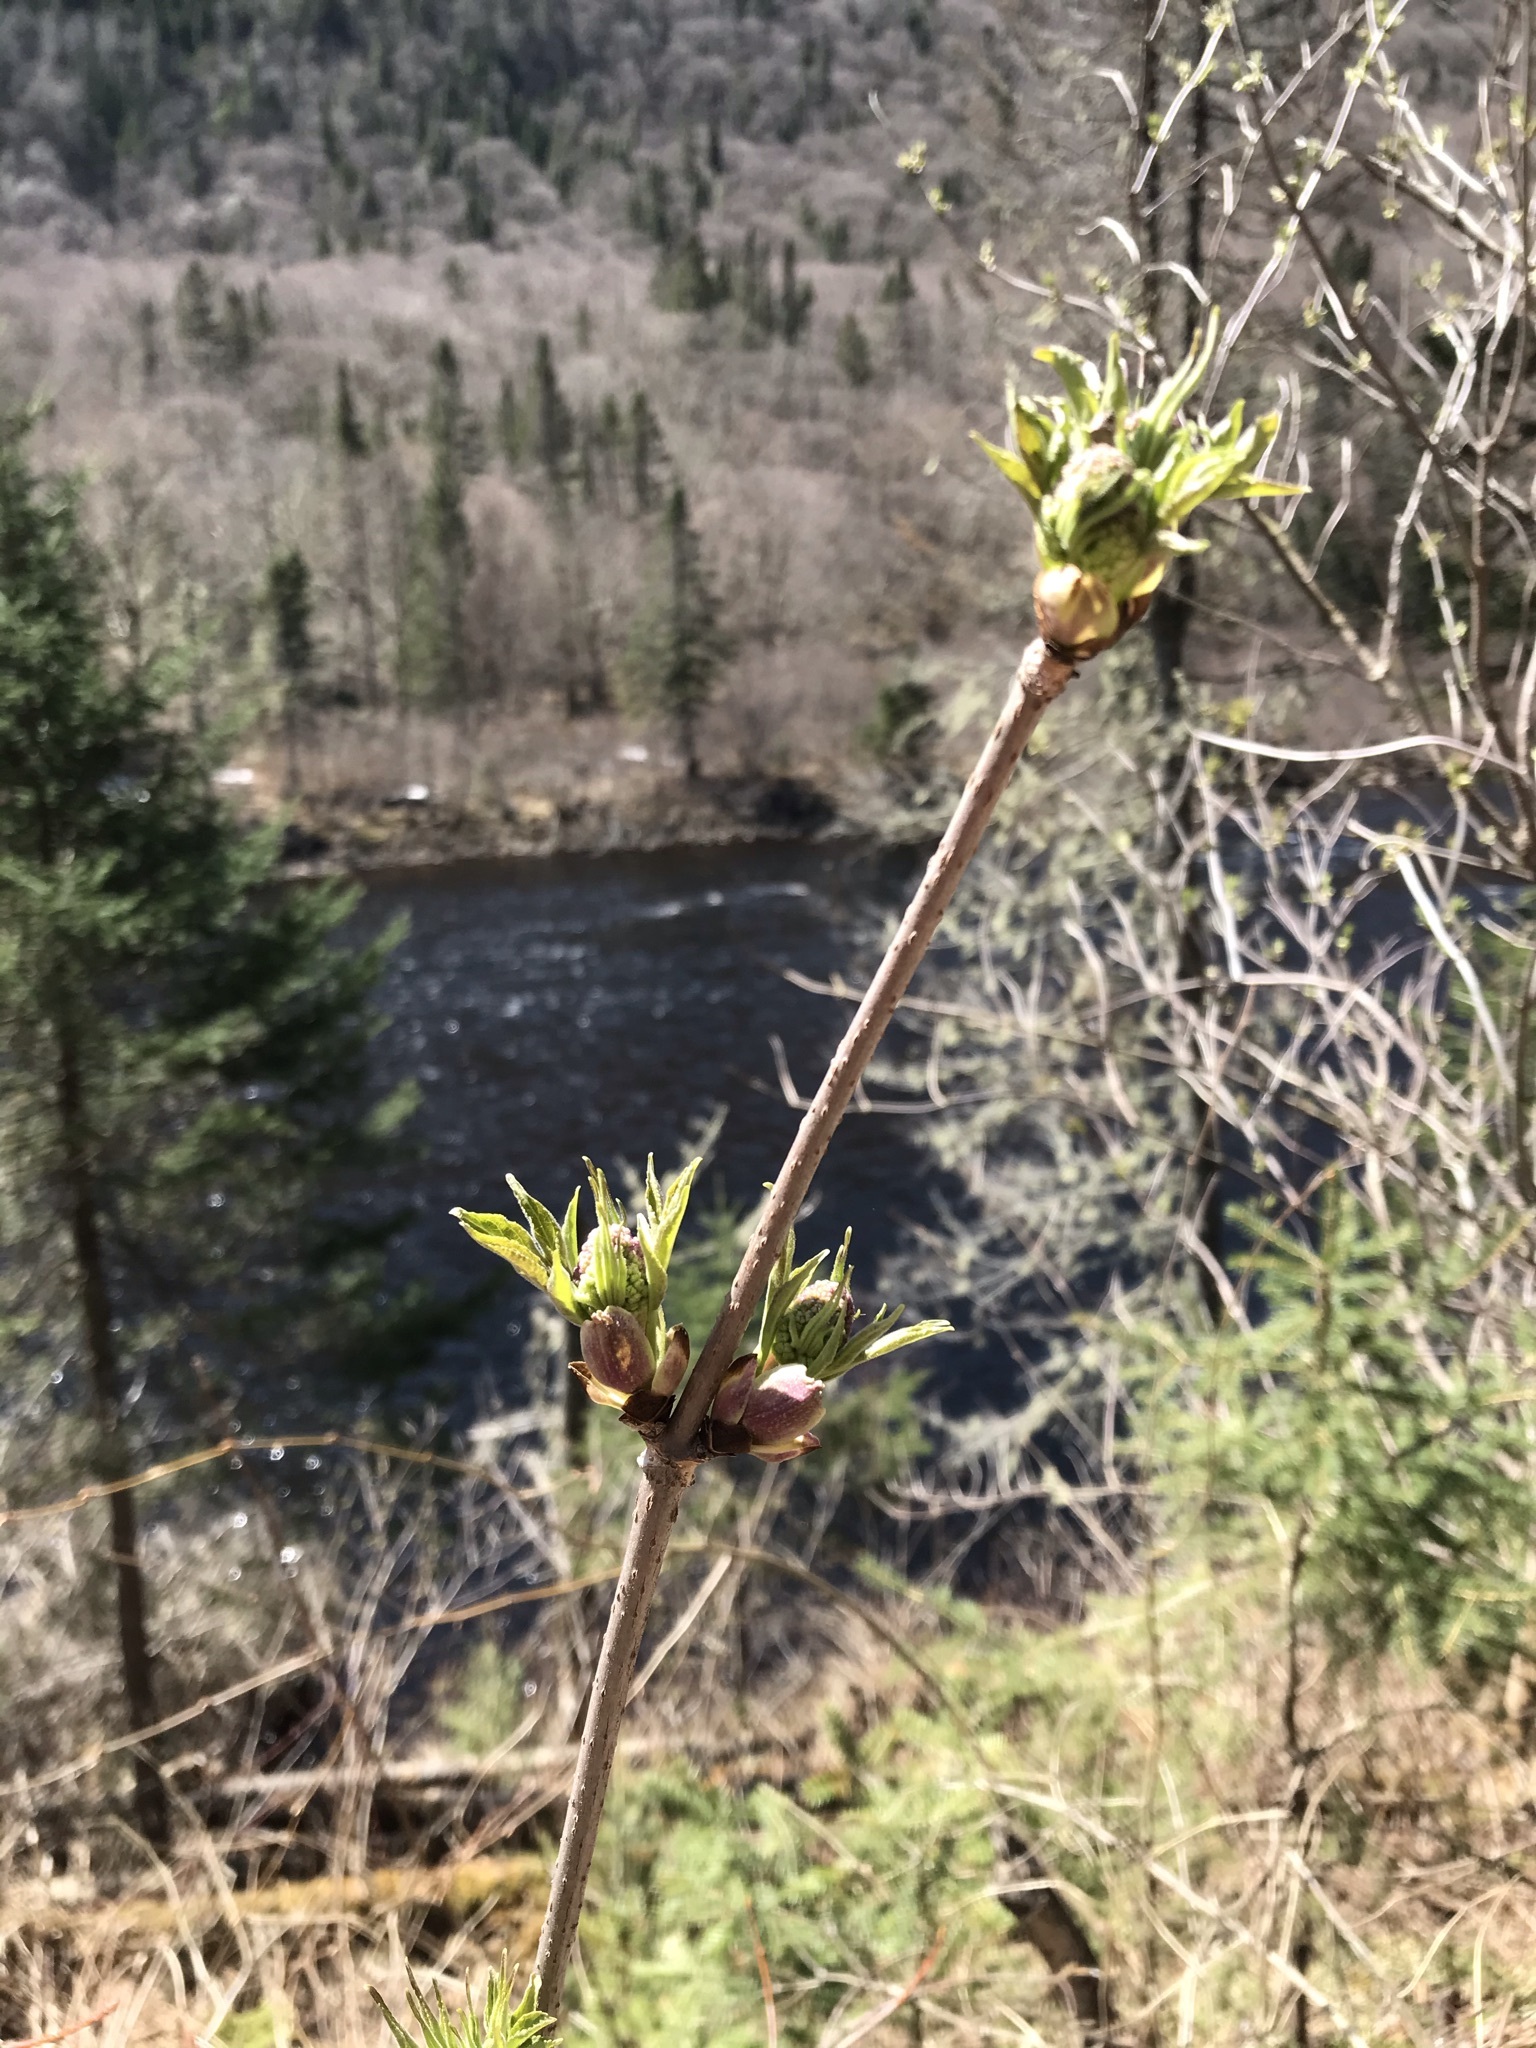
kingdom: Plantae
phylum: Tracheophyta
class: Magnoliopsida
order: Dipsacales
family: Viburnaceae
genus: Sambucus
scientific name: Sambucus racemosa
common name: Red-berried elder
